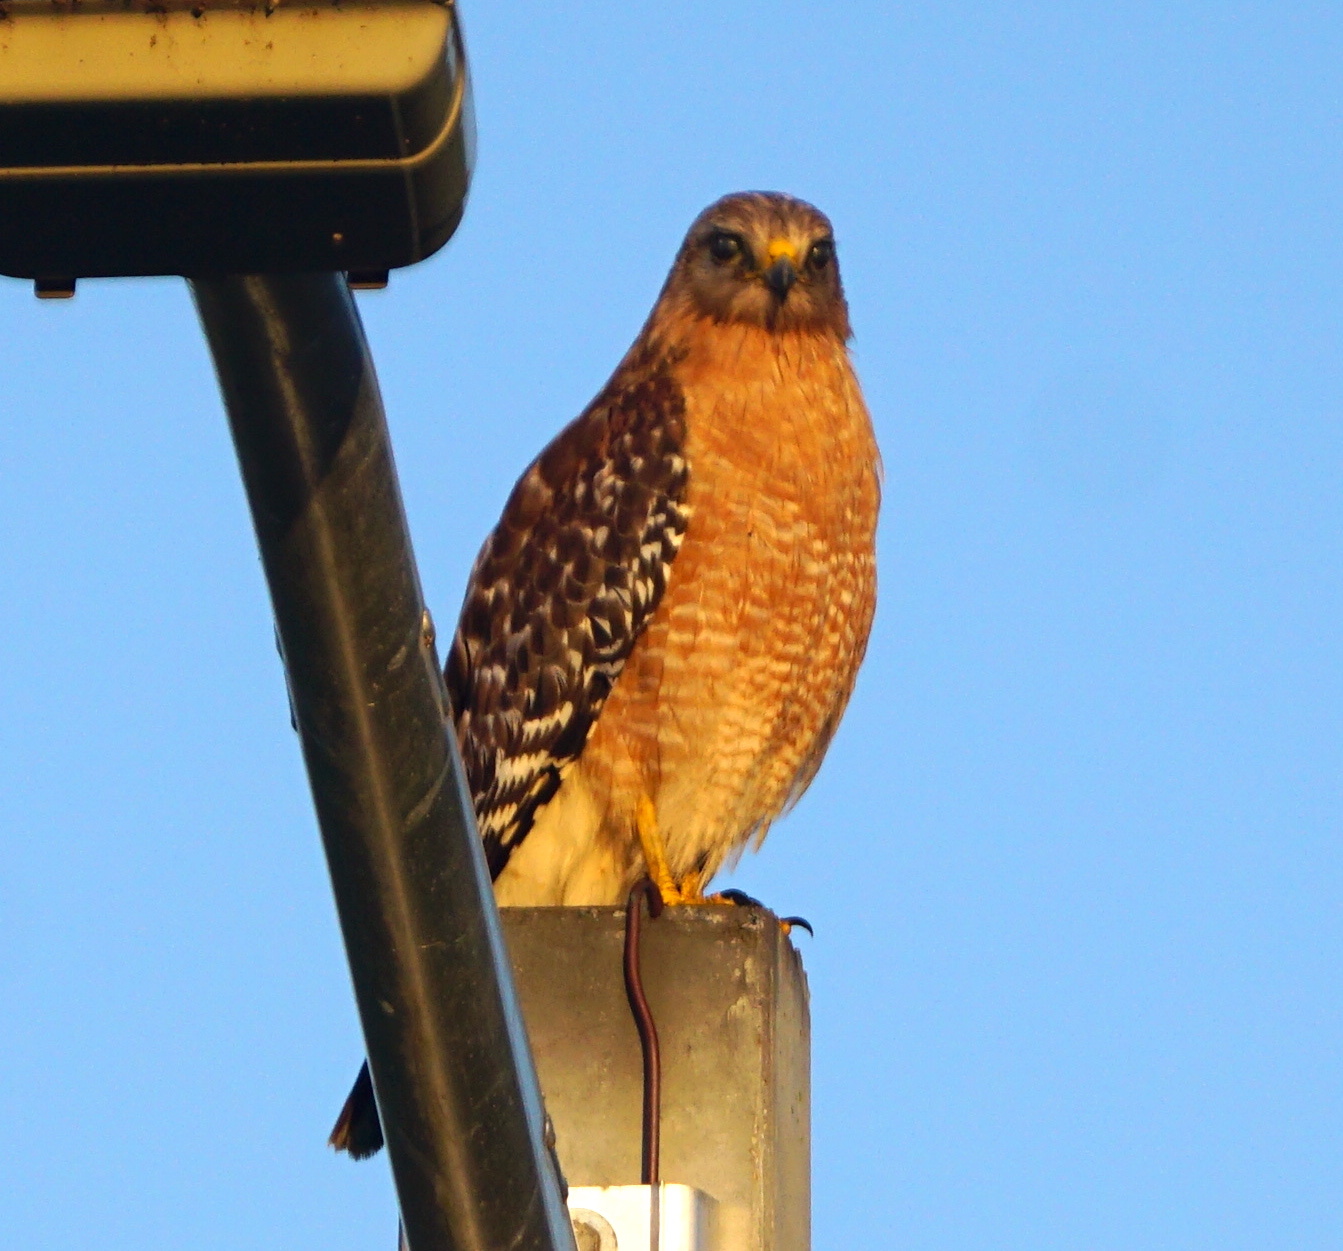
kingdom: Animalia
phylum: Chordata
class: Aves
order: Accipitriformes
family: Accipitridae
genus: Buteo
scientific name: Buteo lineatus
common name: Red-shouldered hawk
